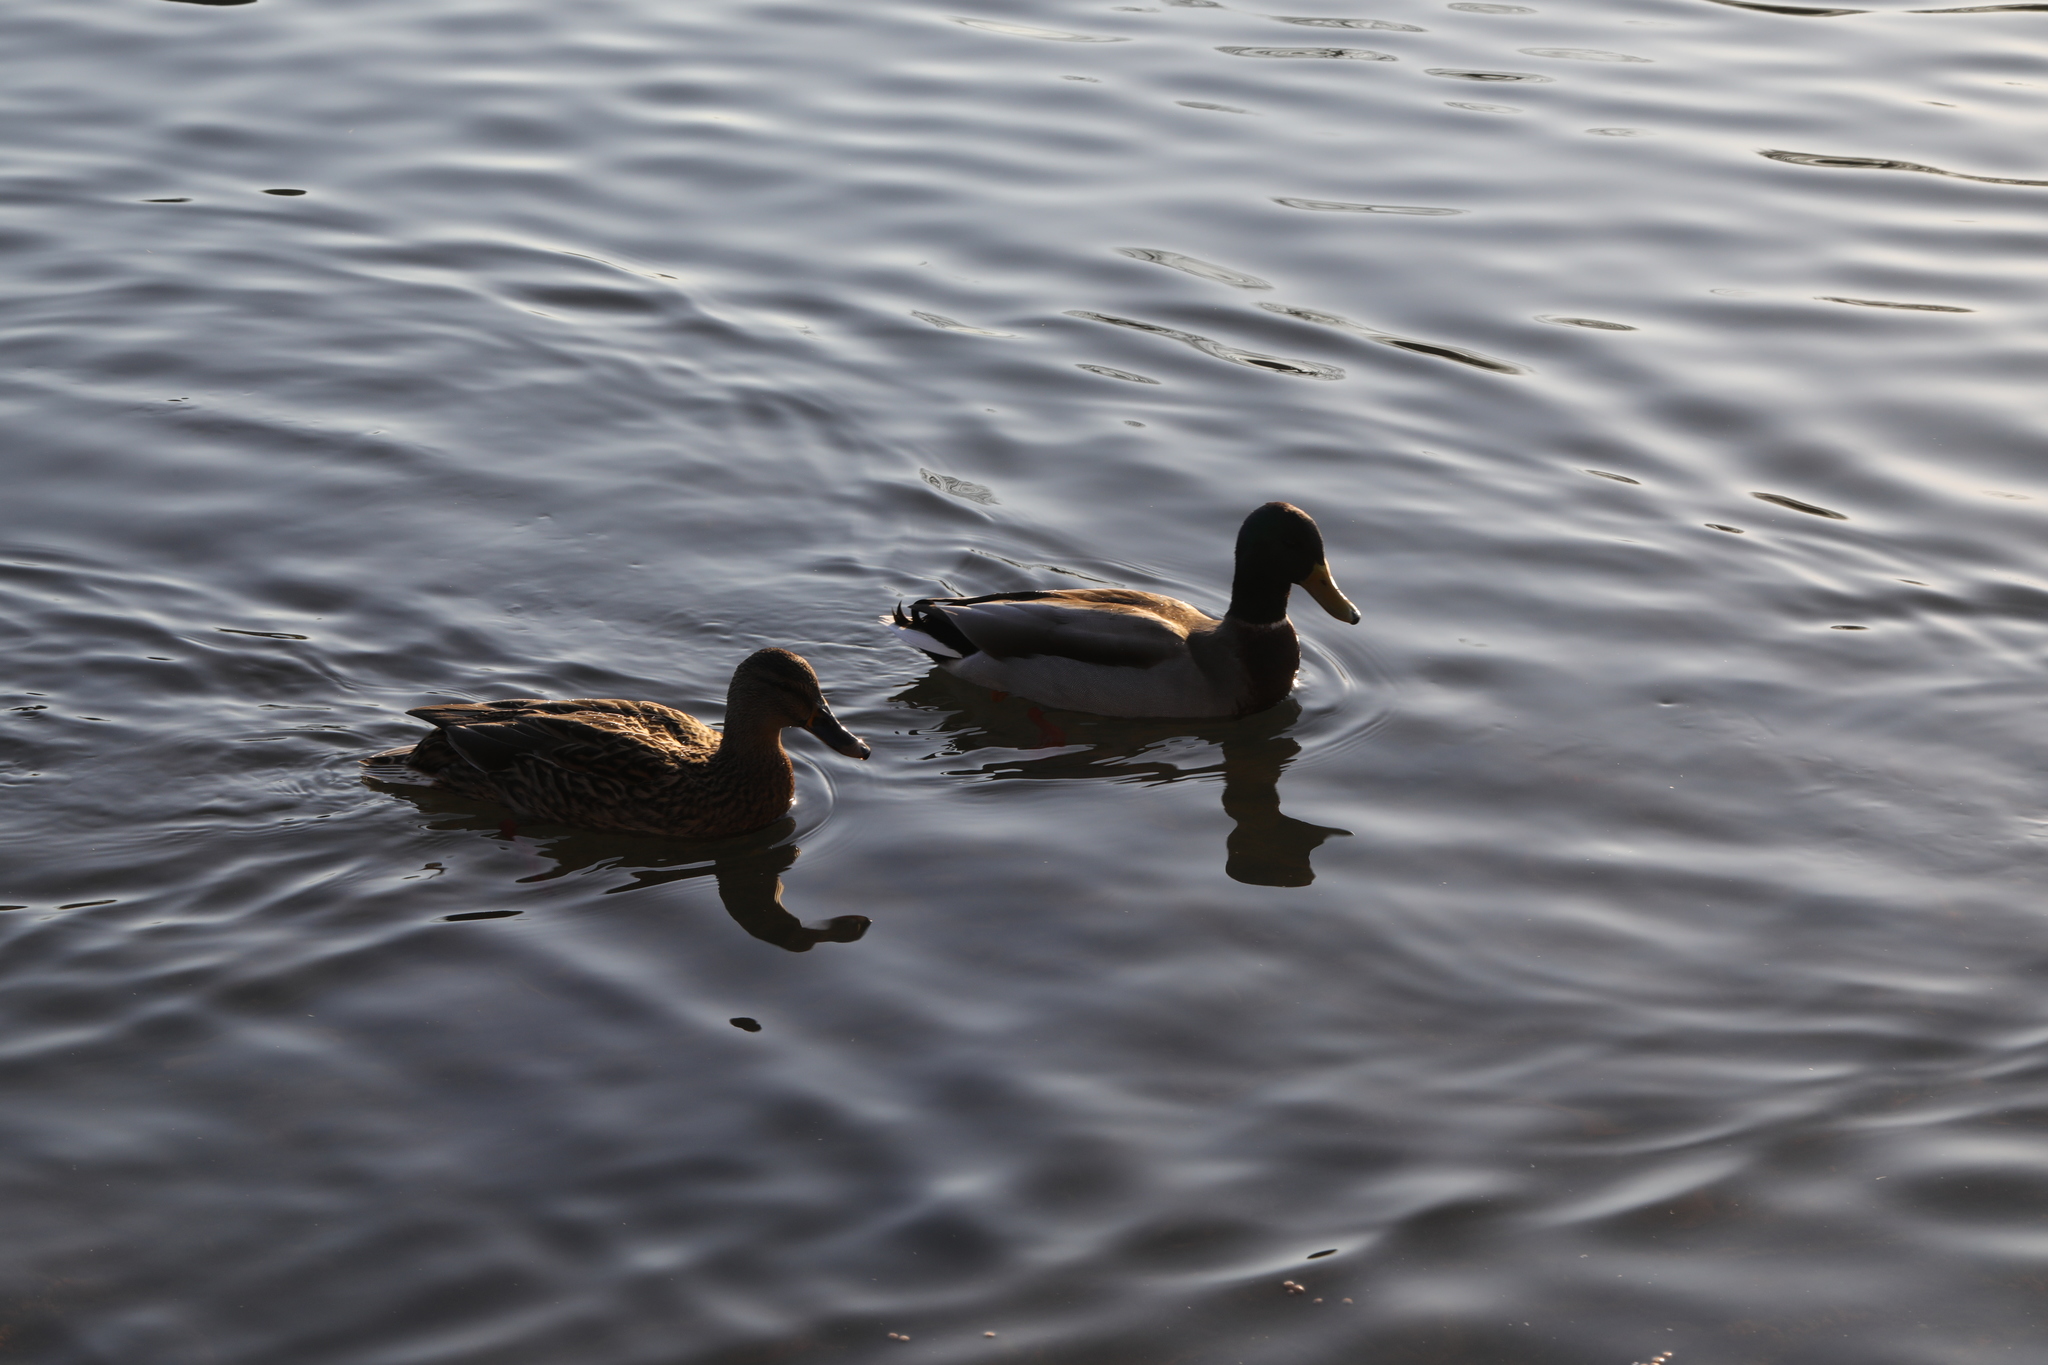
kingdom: Animalia
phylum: Chordata
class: Aves
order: Anseriformes
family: Anatidae
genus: Anas
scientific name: Anas platyrhynchos
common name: Mallard
